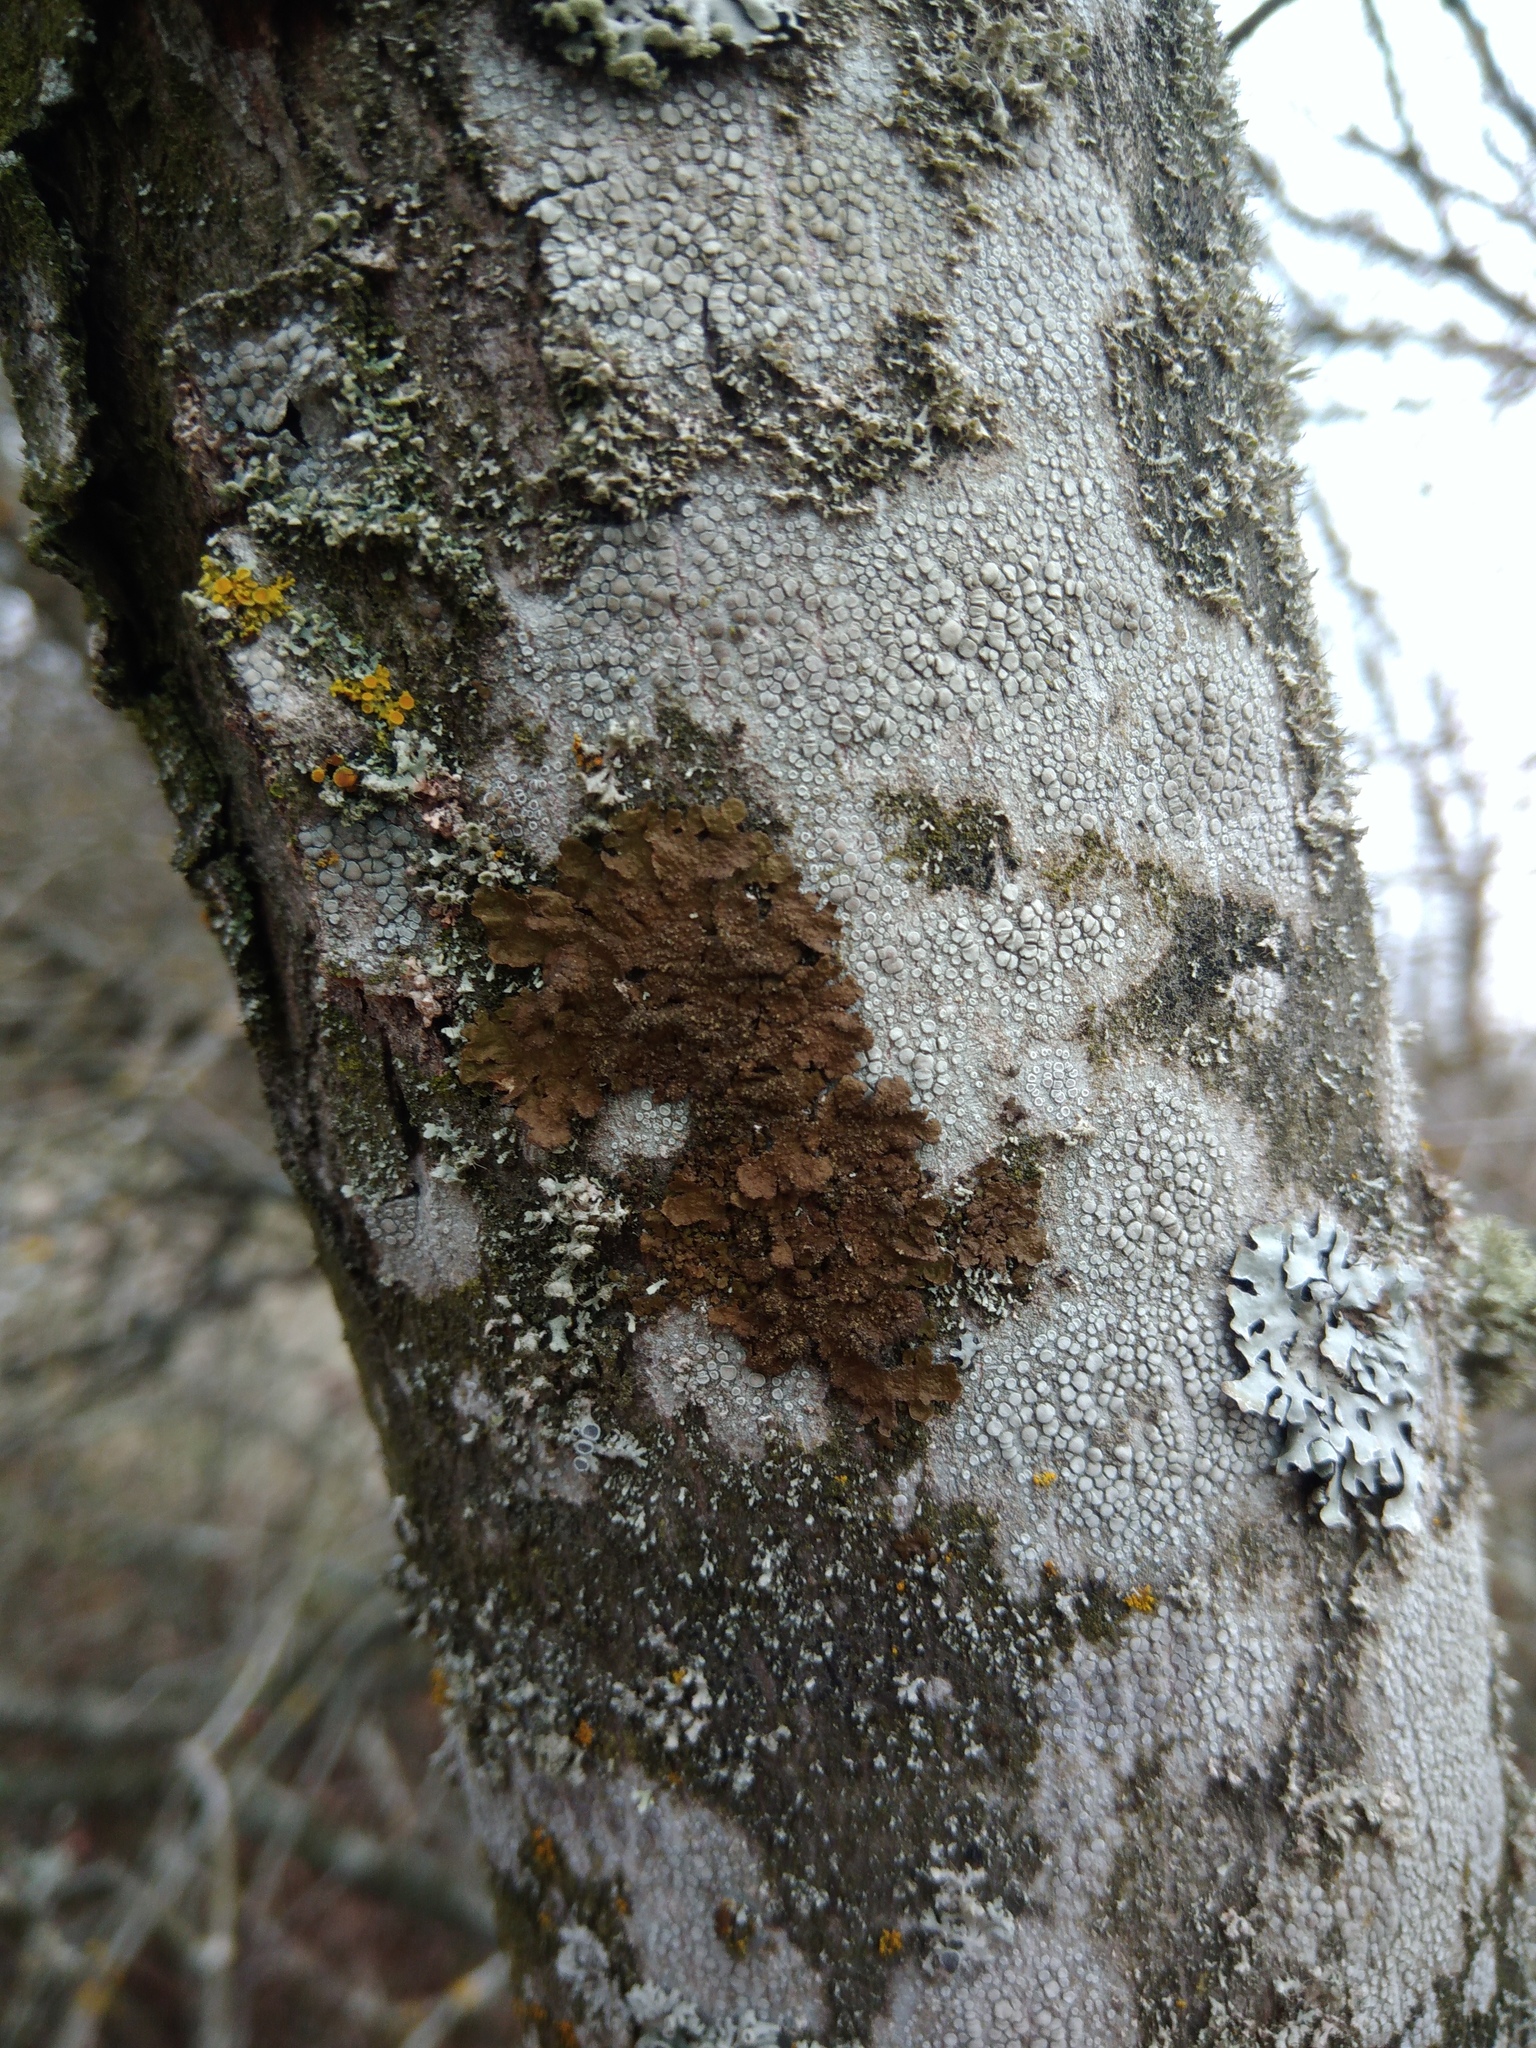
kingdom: Fungi
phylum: Ascomycota
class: Lecanoromycetes
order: Lecanorales
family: Parmeliaceae
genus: Melanelixia
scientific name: Melanelixia subaurifera
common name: Abraded camouflage lichen
